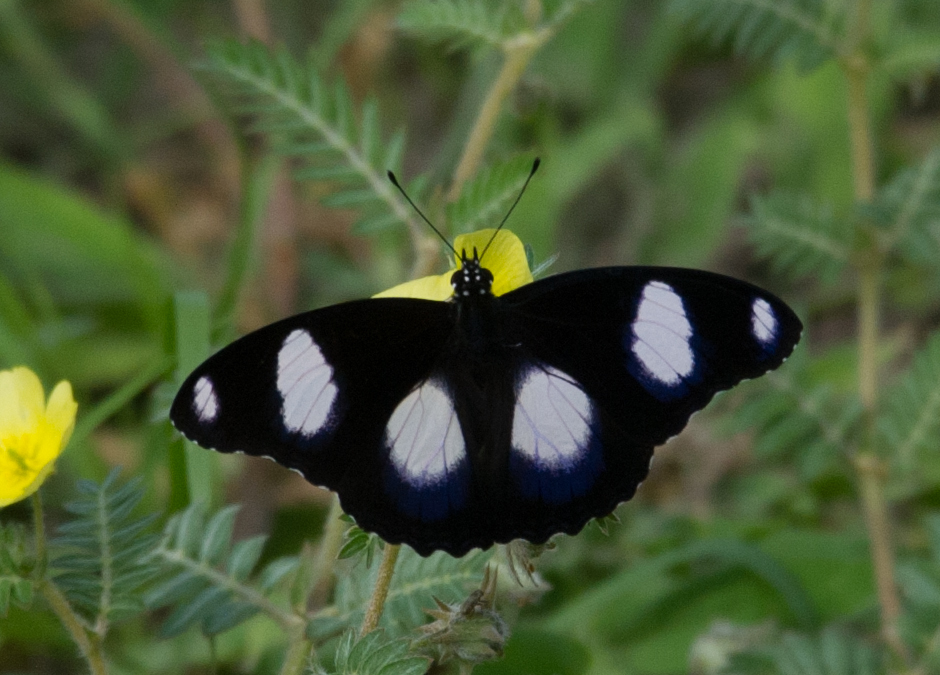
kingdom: Animalia
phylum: Arthropoda
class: Insecta
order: Lepidoptera
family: Nymphalidae
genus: Hypolimnas
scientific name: Hypolimnas misippus
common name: False plain tiger
